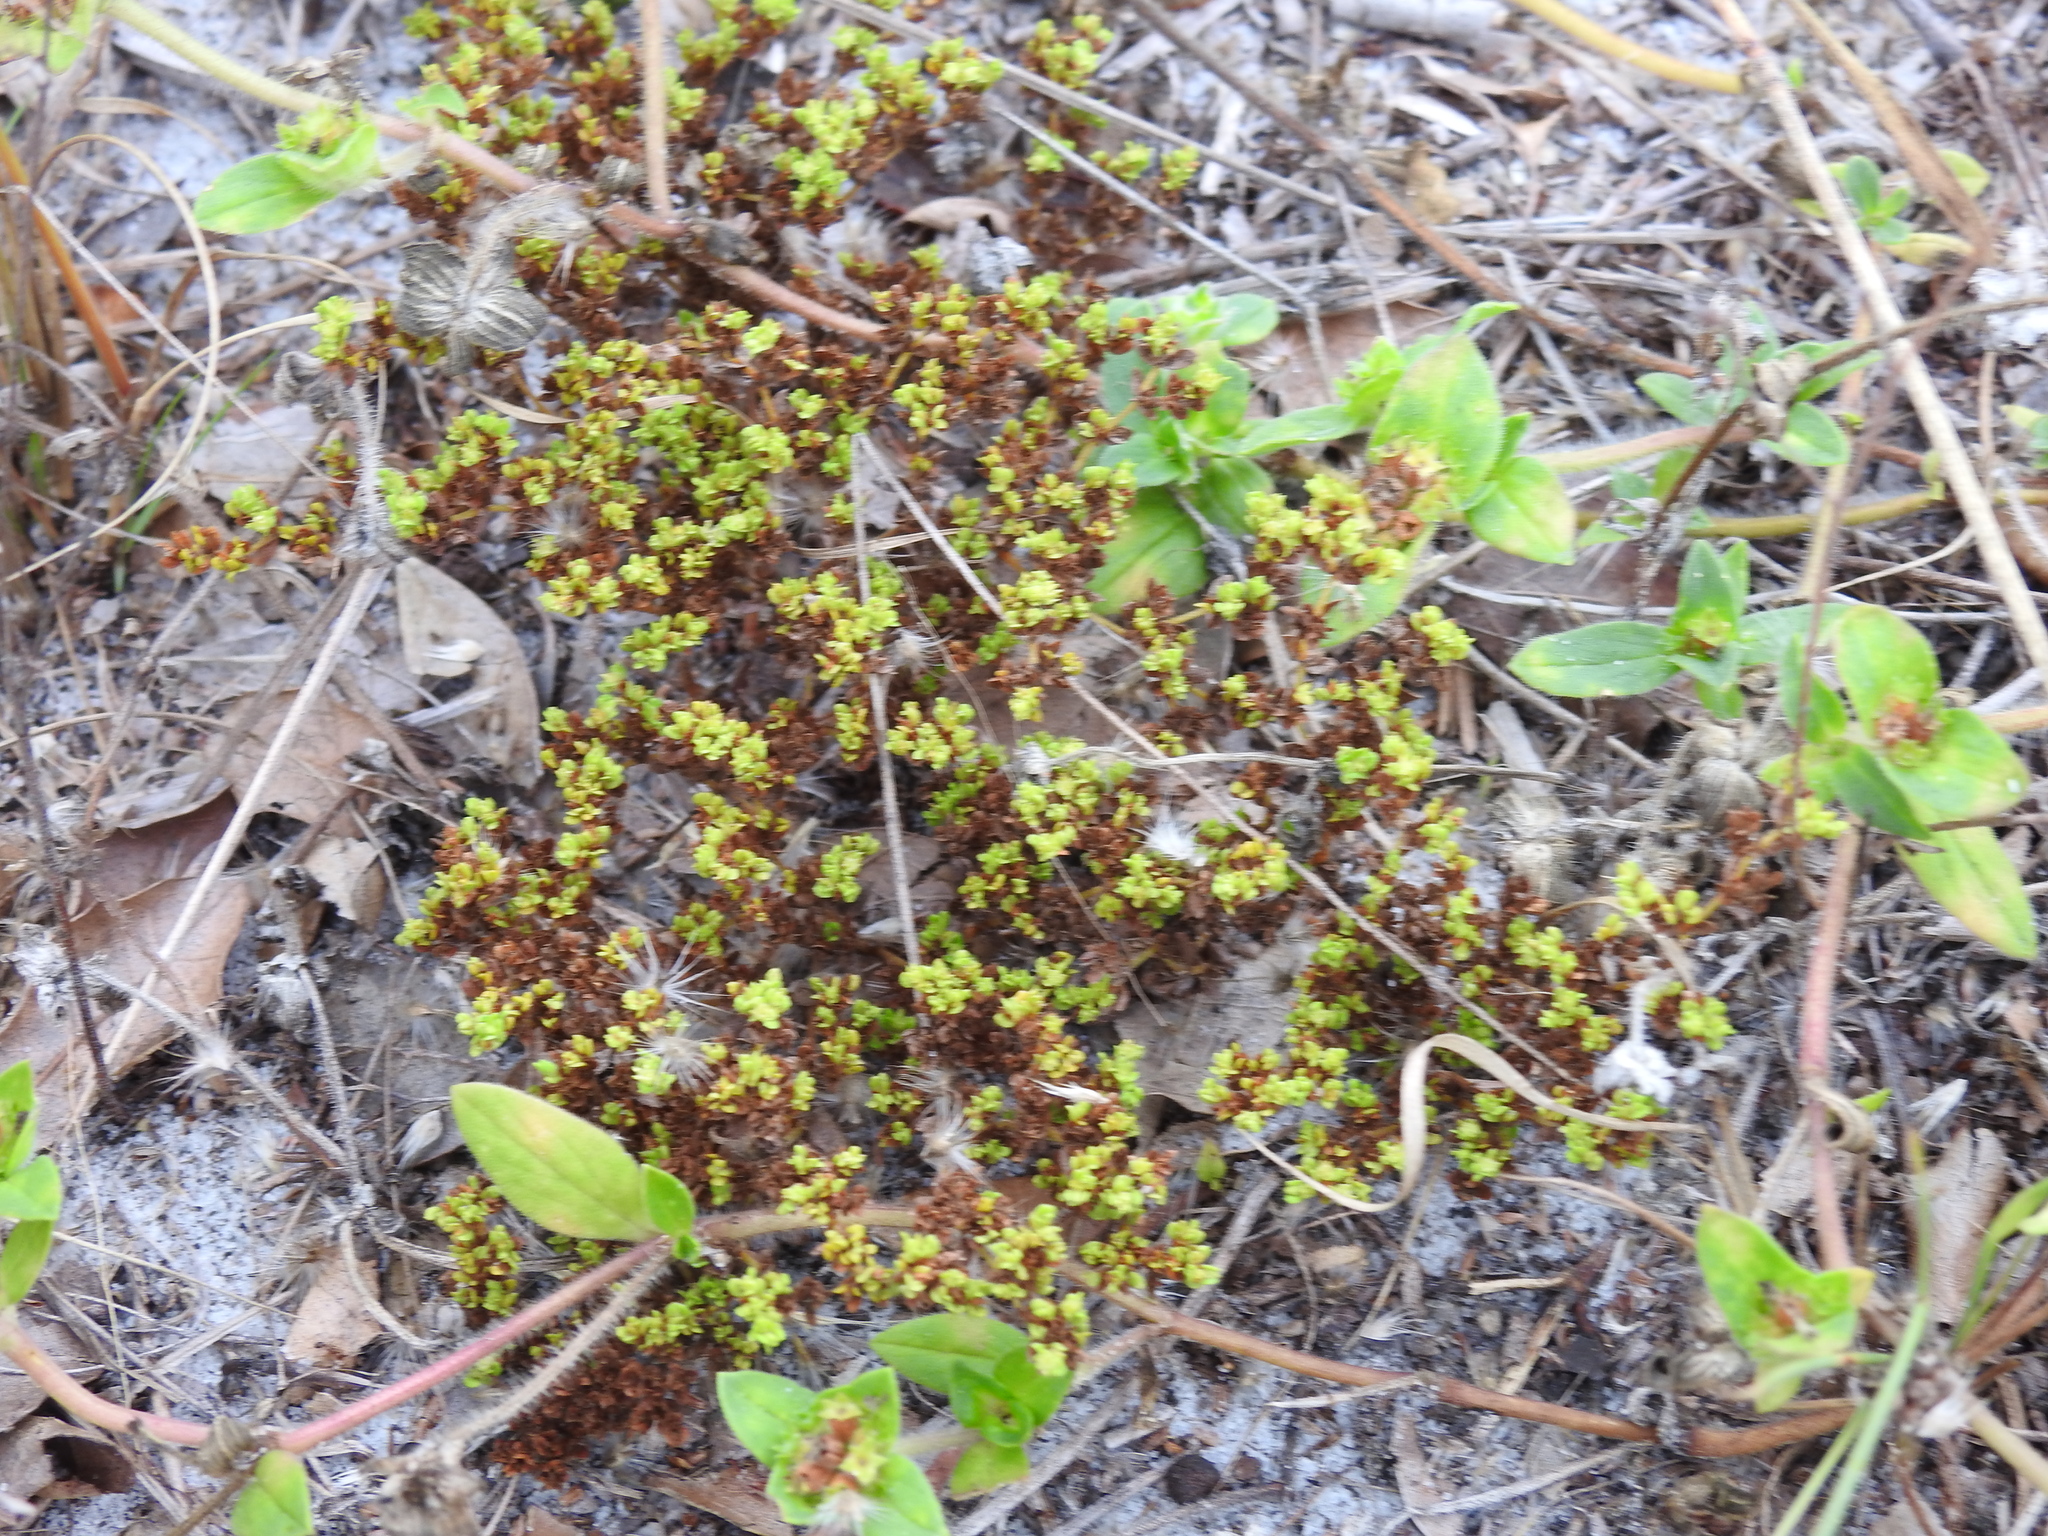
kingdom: Plantae
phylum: Tracheophyta
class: Magnoliopsida
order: Caryophyllales
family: Caryophyllaceae
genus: Paronychia
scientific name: Paronychia herniarioides
